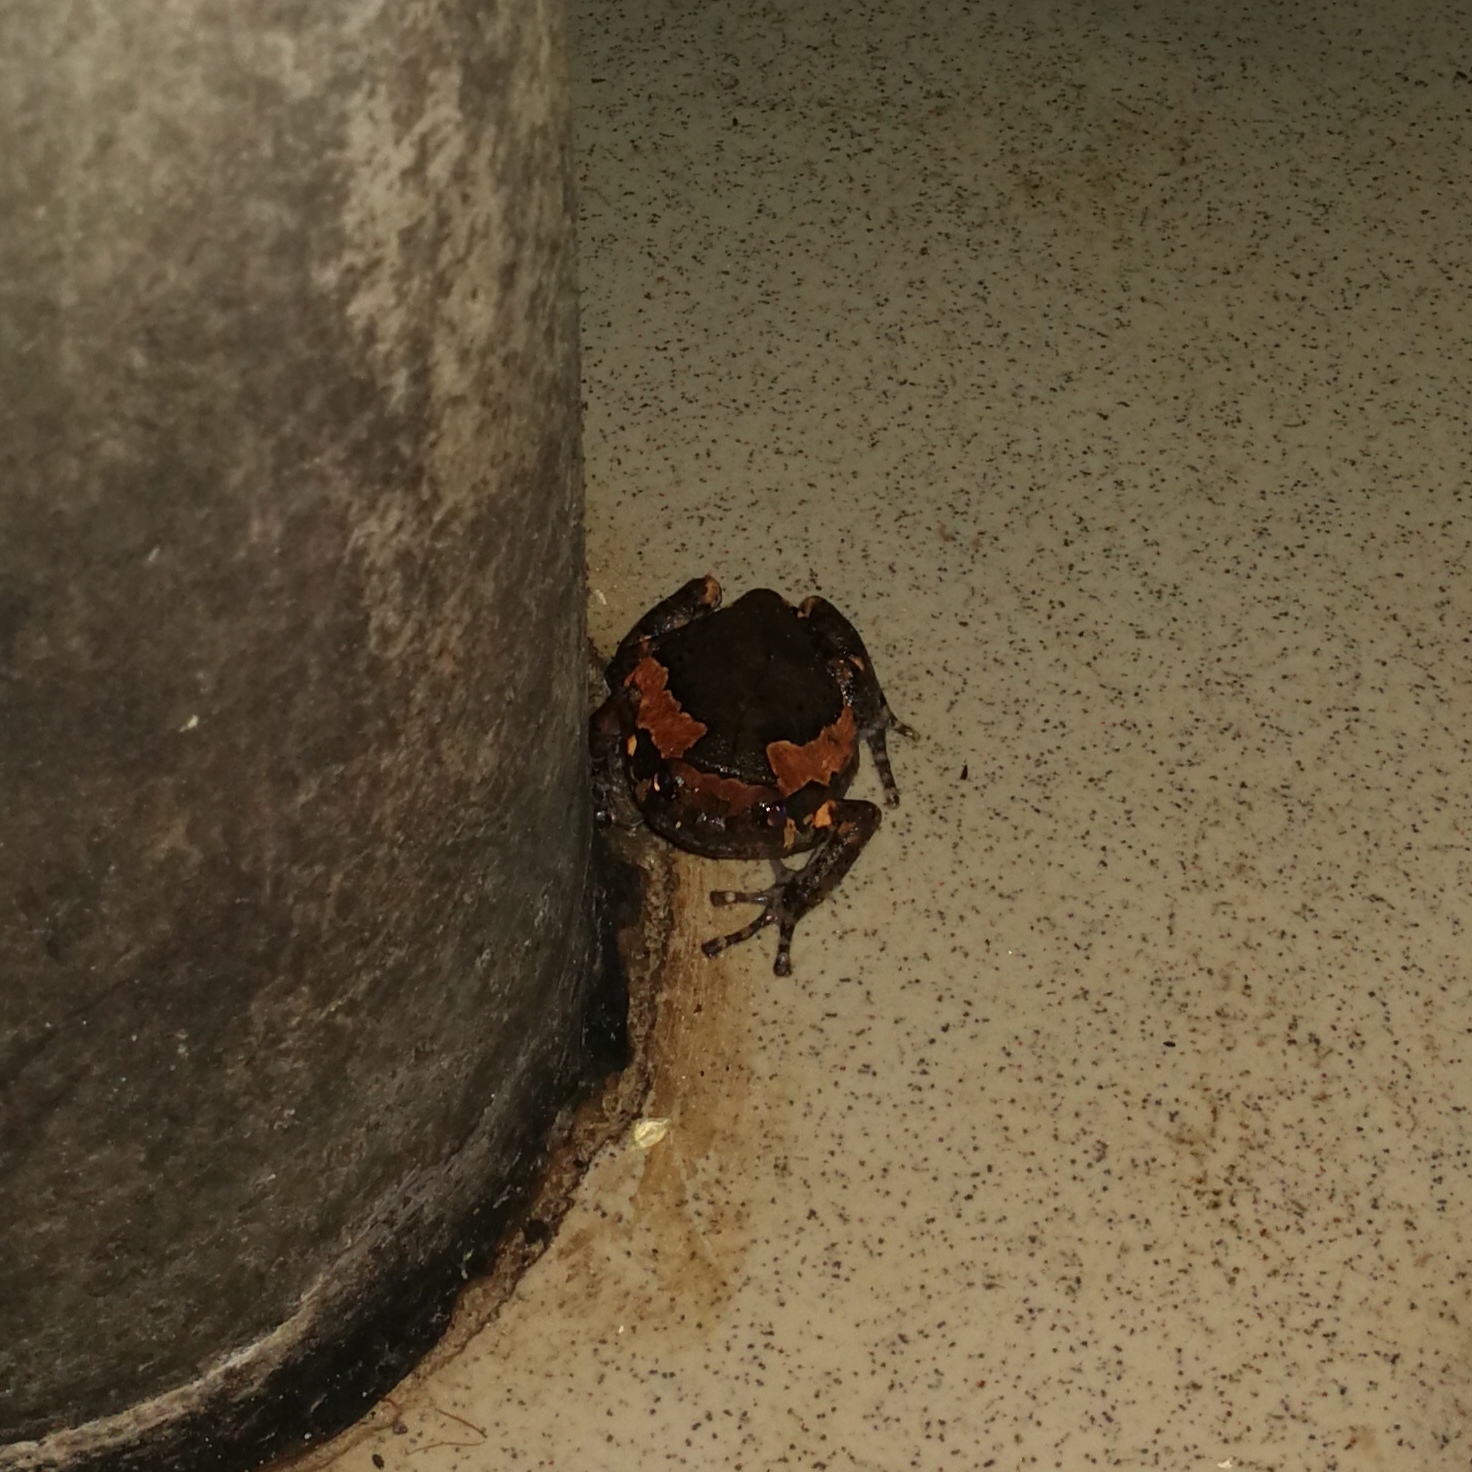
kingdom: Animalia
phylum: Chordata
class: Amphibia
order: Anura
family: Microhylidae
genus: Kaloula
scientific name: Kaloula pulchra
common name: Common,banded bullfrog
